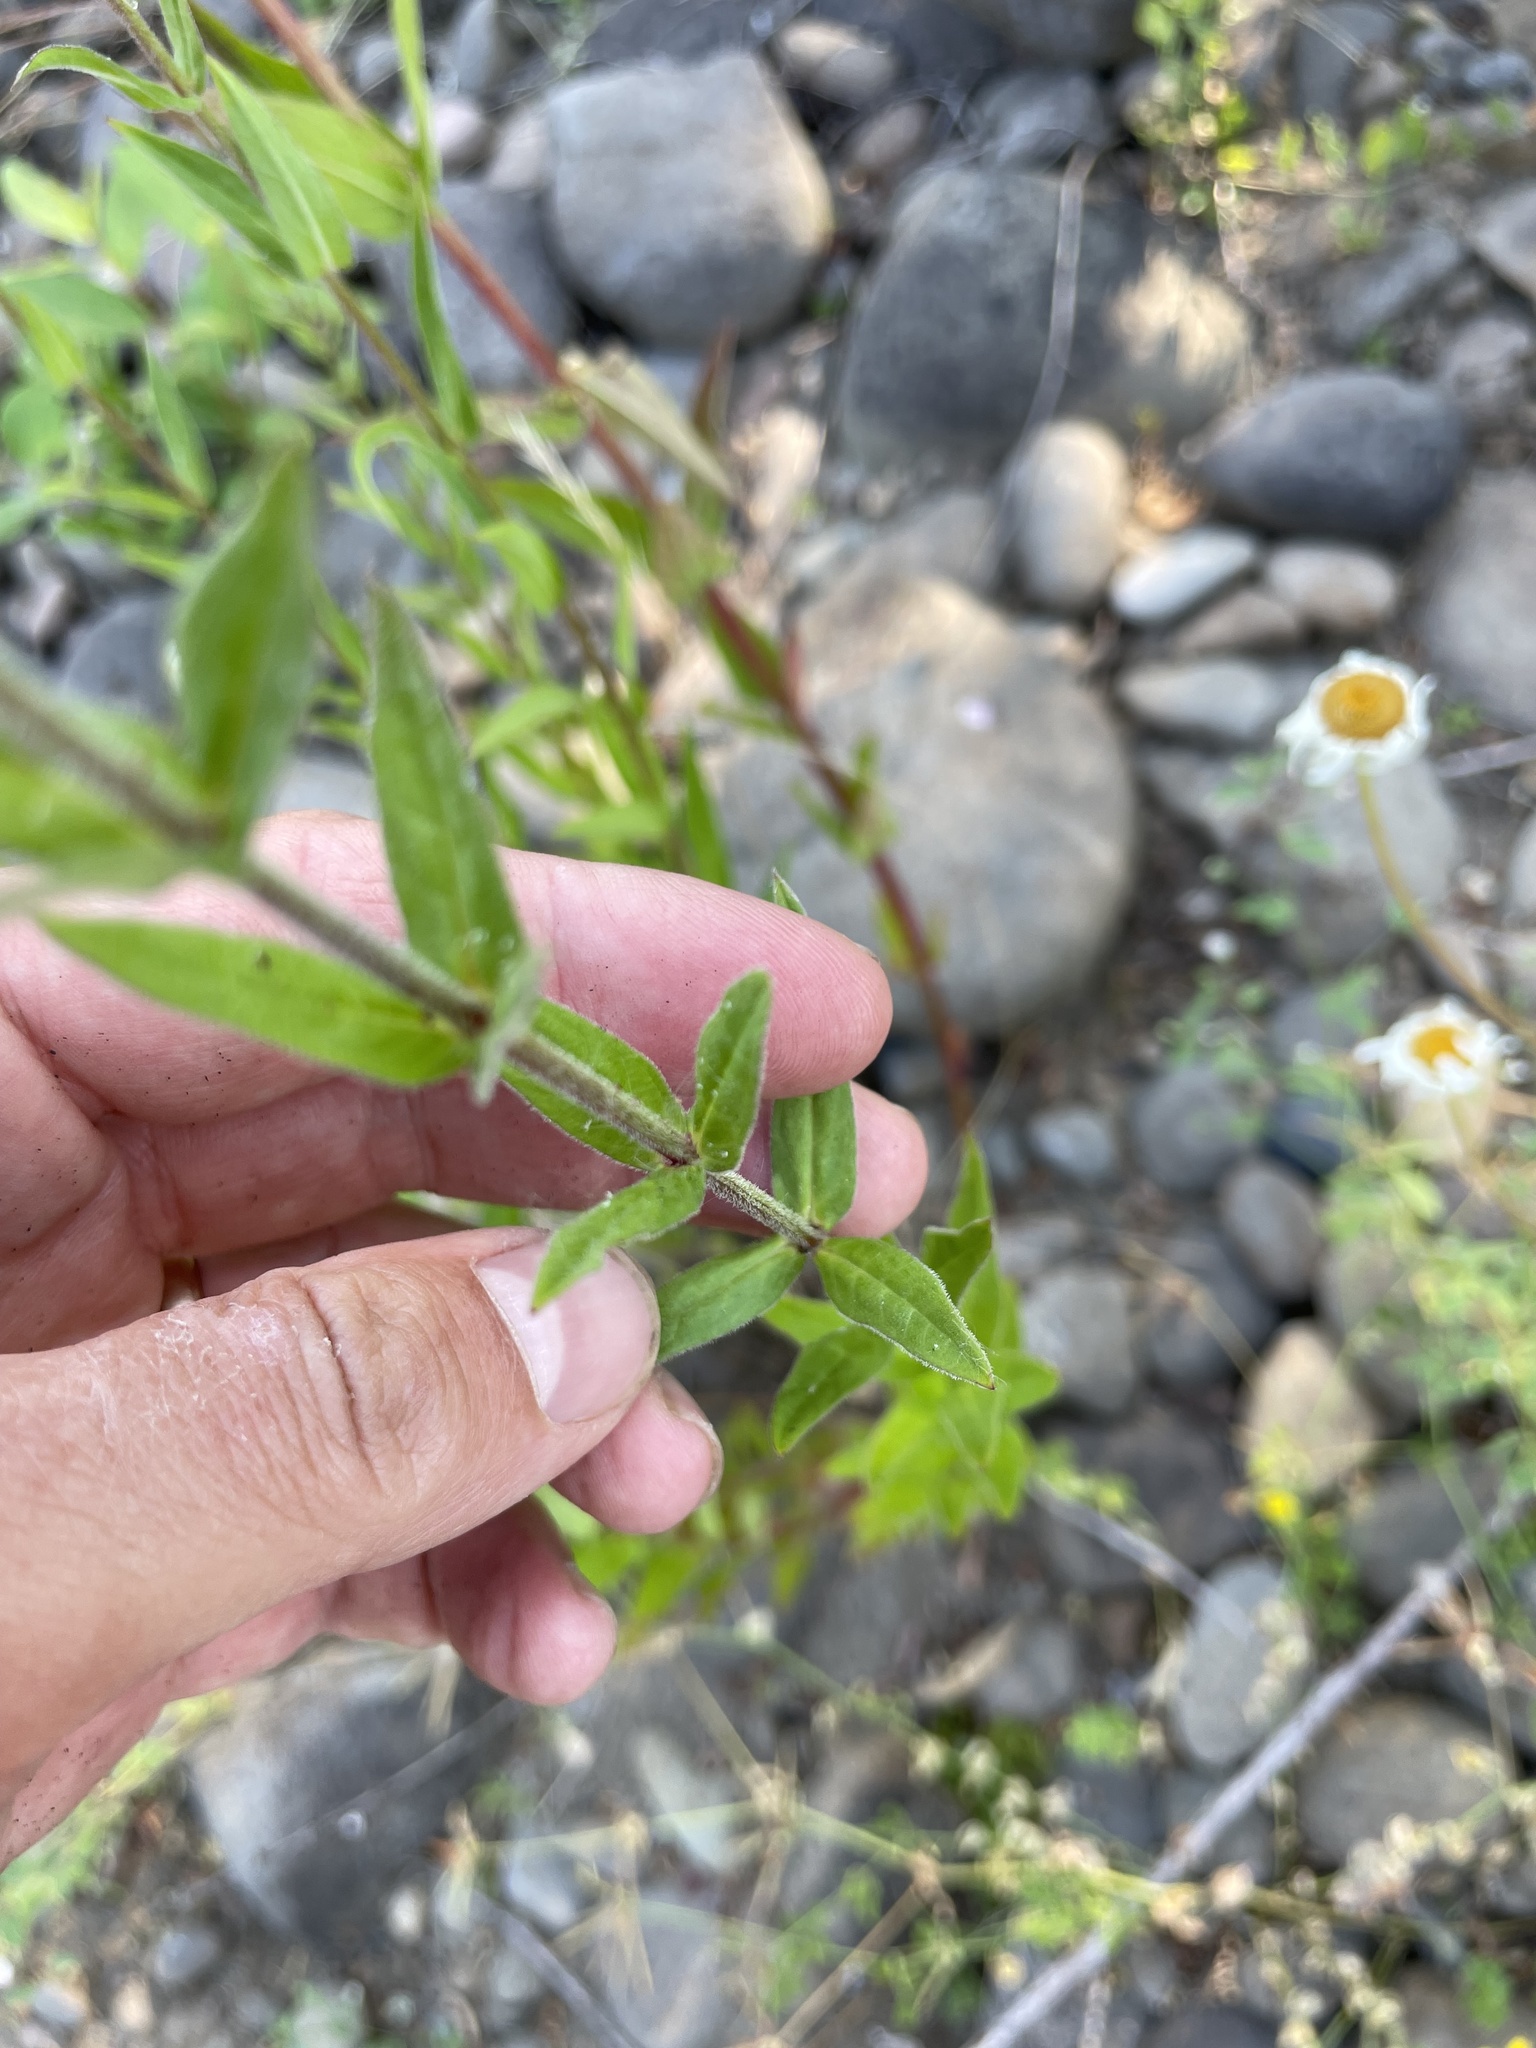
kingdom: Plantae
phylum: Tracheophyta
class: Magnoliopsida
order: Myrtales
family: Lythraceae
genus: Lythrum
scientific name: Lythrum salicaria
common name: Purple loosestrife
